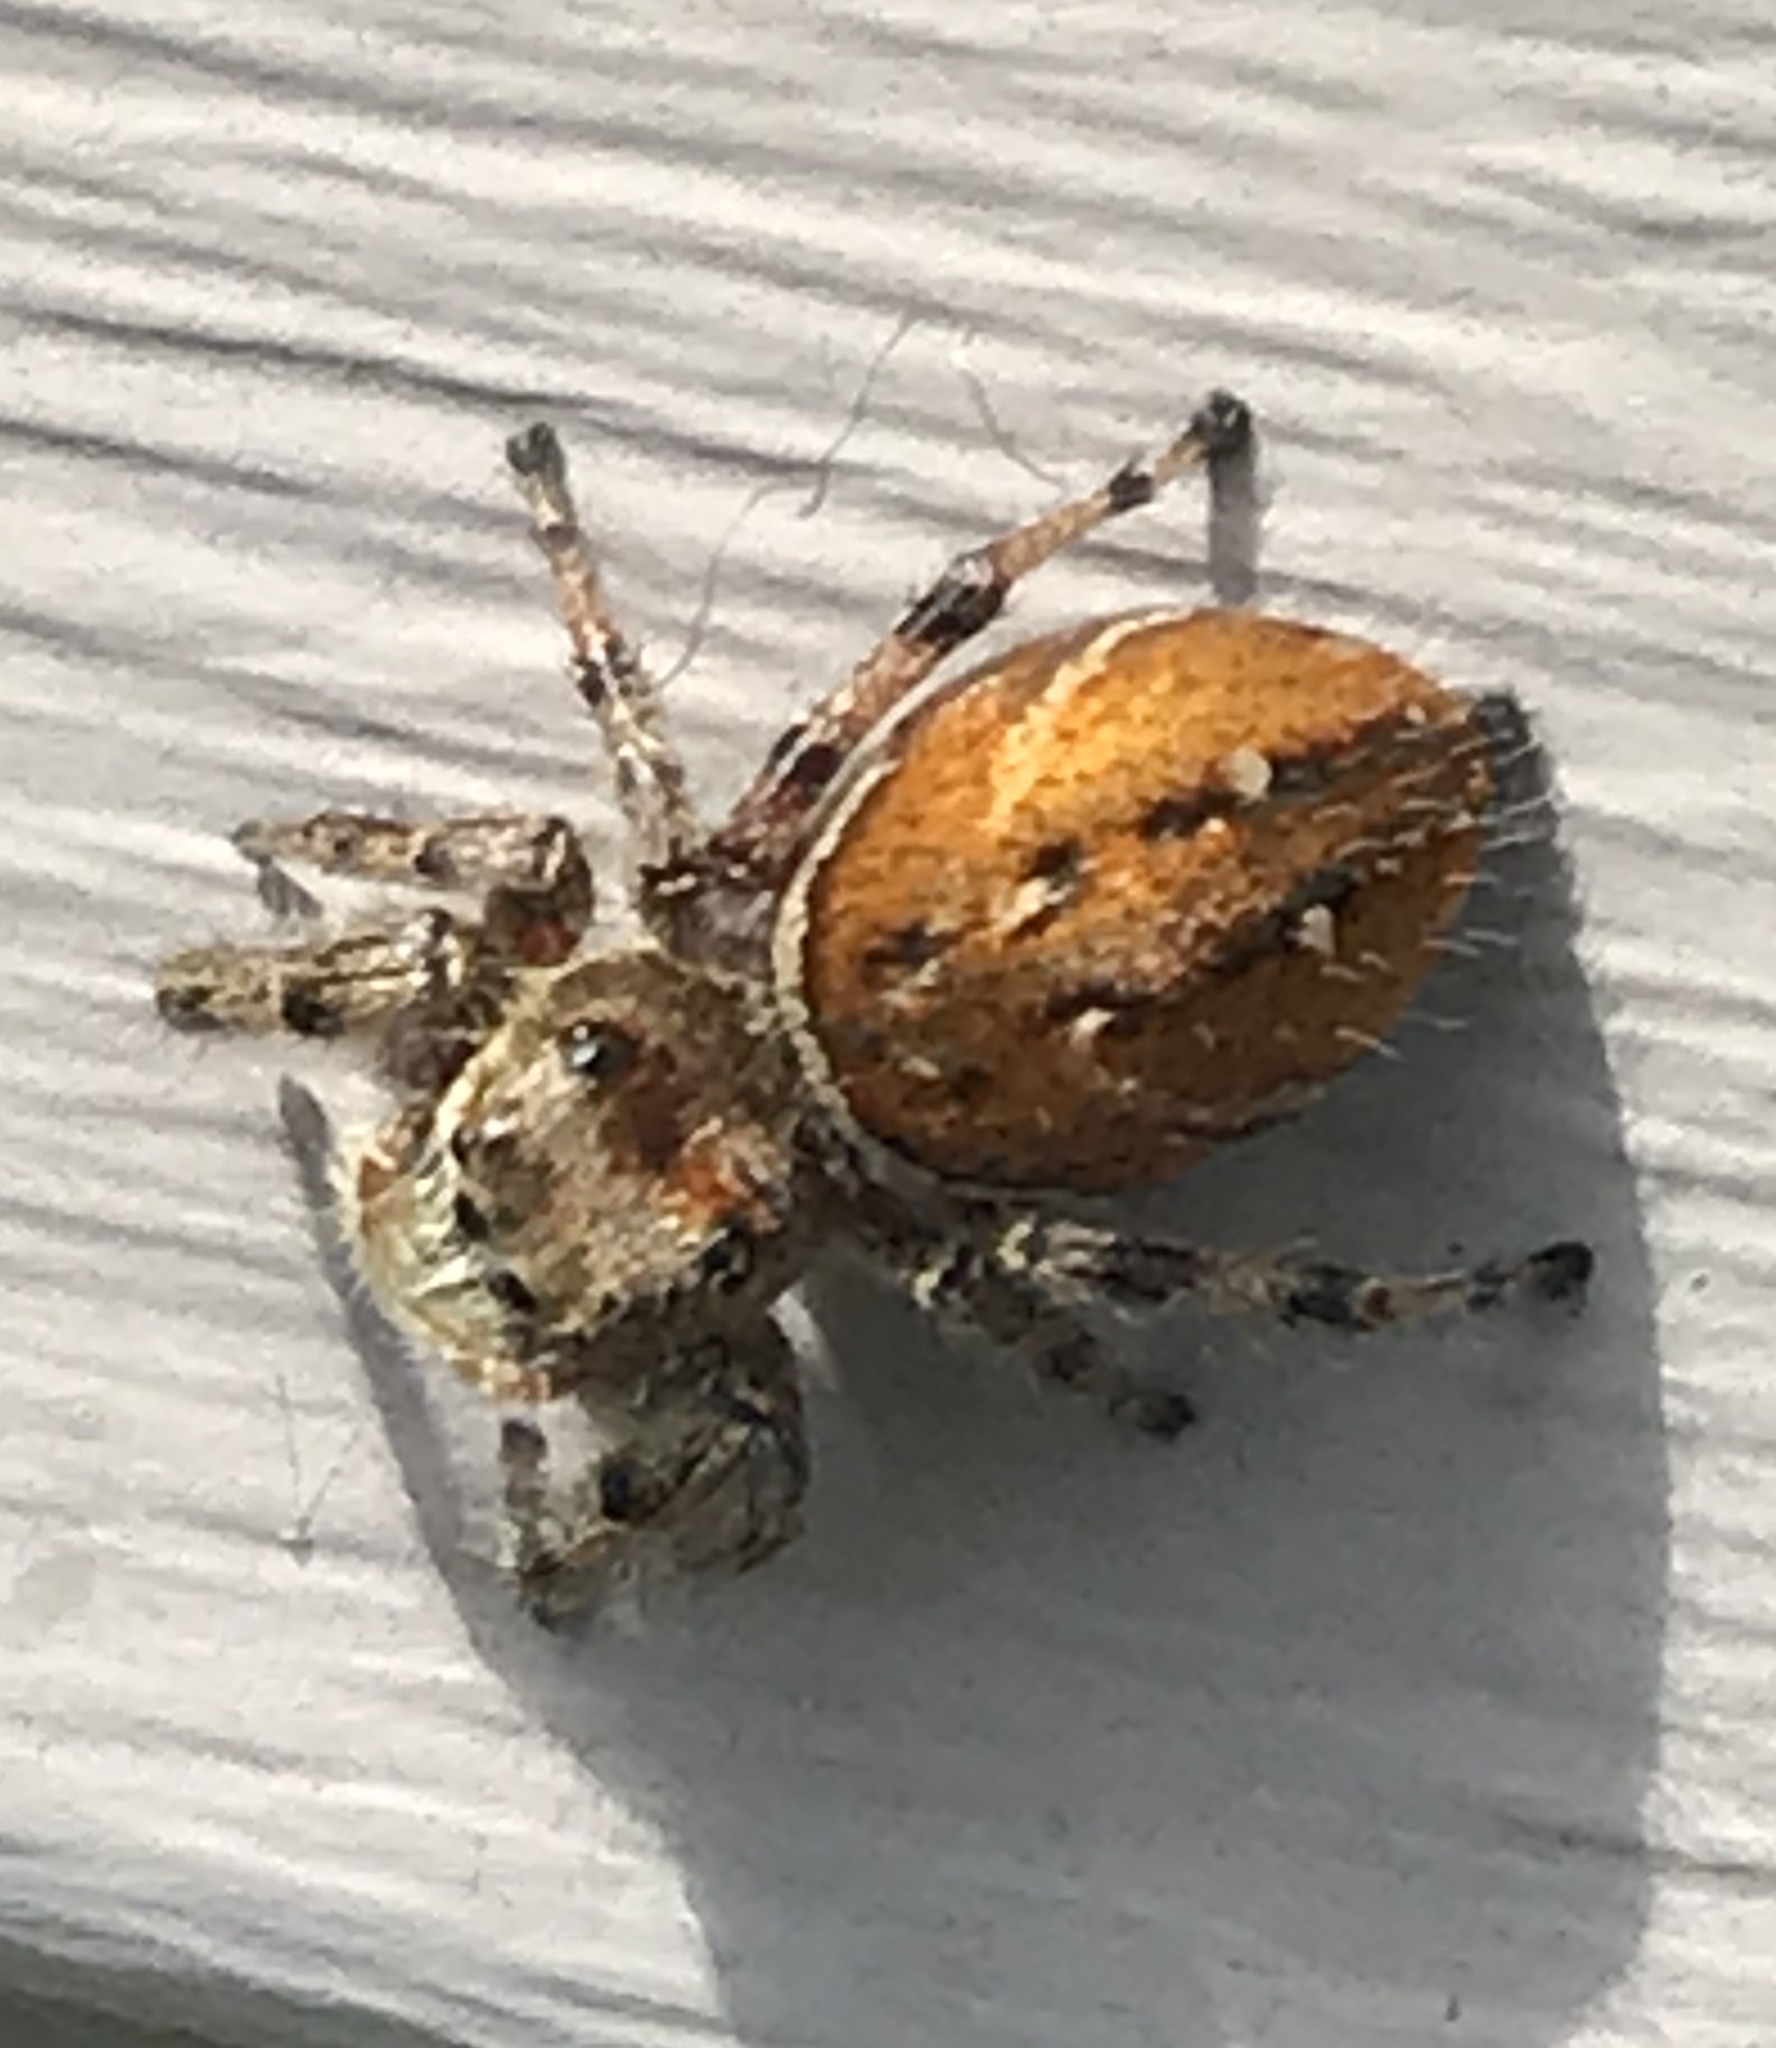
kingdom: Animalia
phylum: Arthropoda
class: Arachnida
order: Araneae
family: Salticidae
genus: Phidippus
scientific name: Phidippus clarus
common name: Brilliant jumping spider
